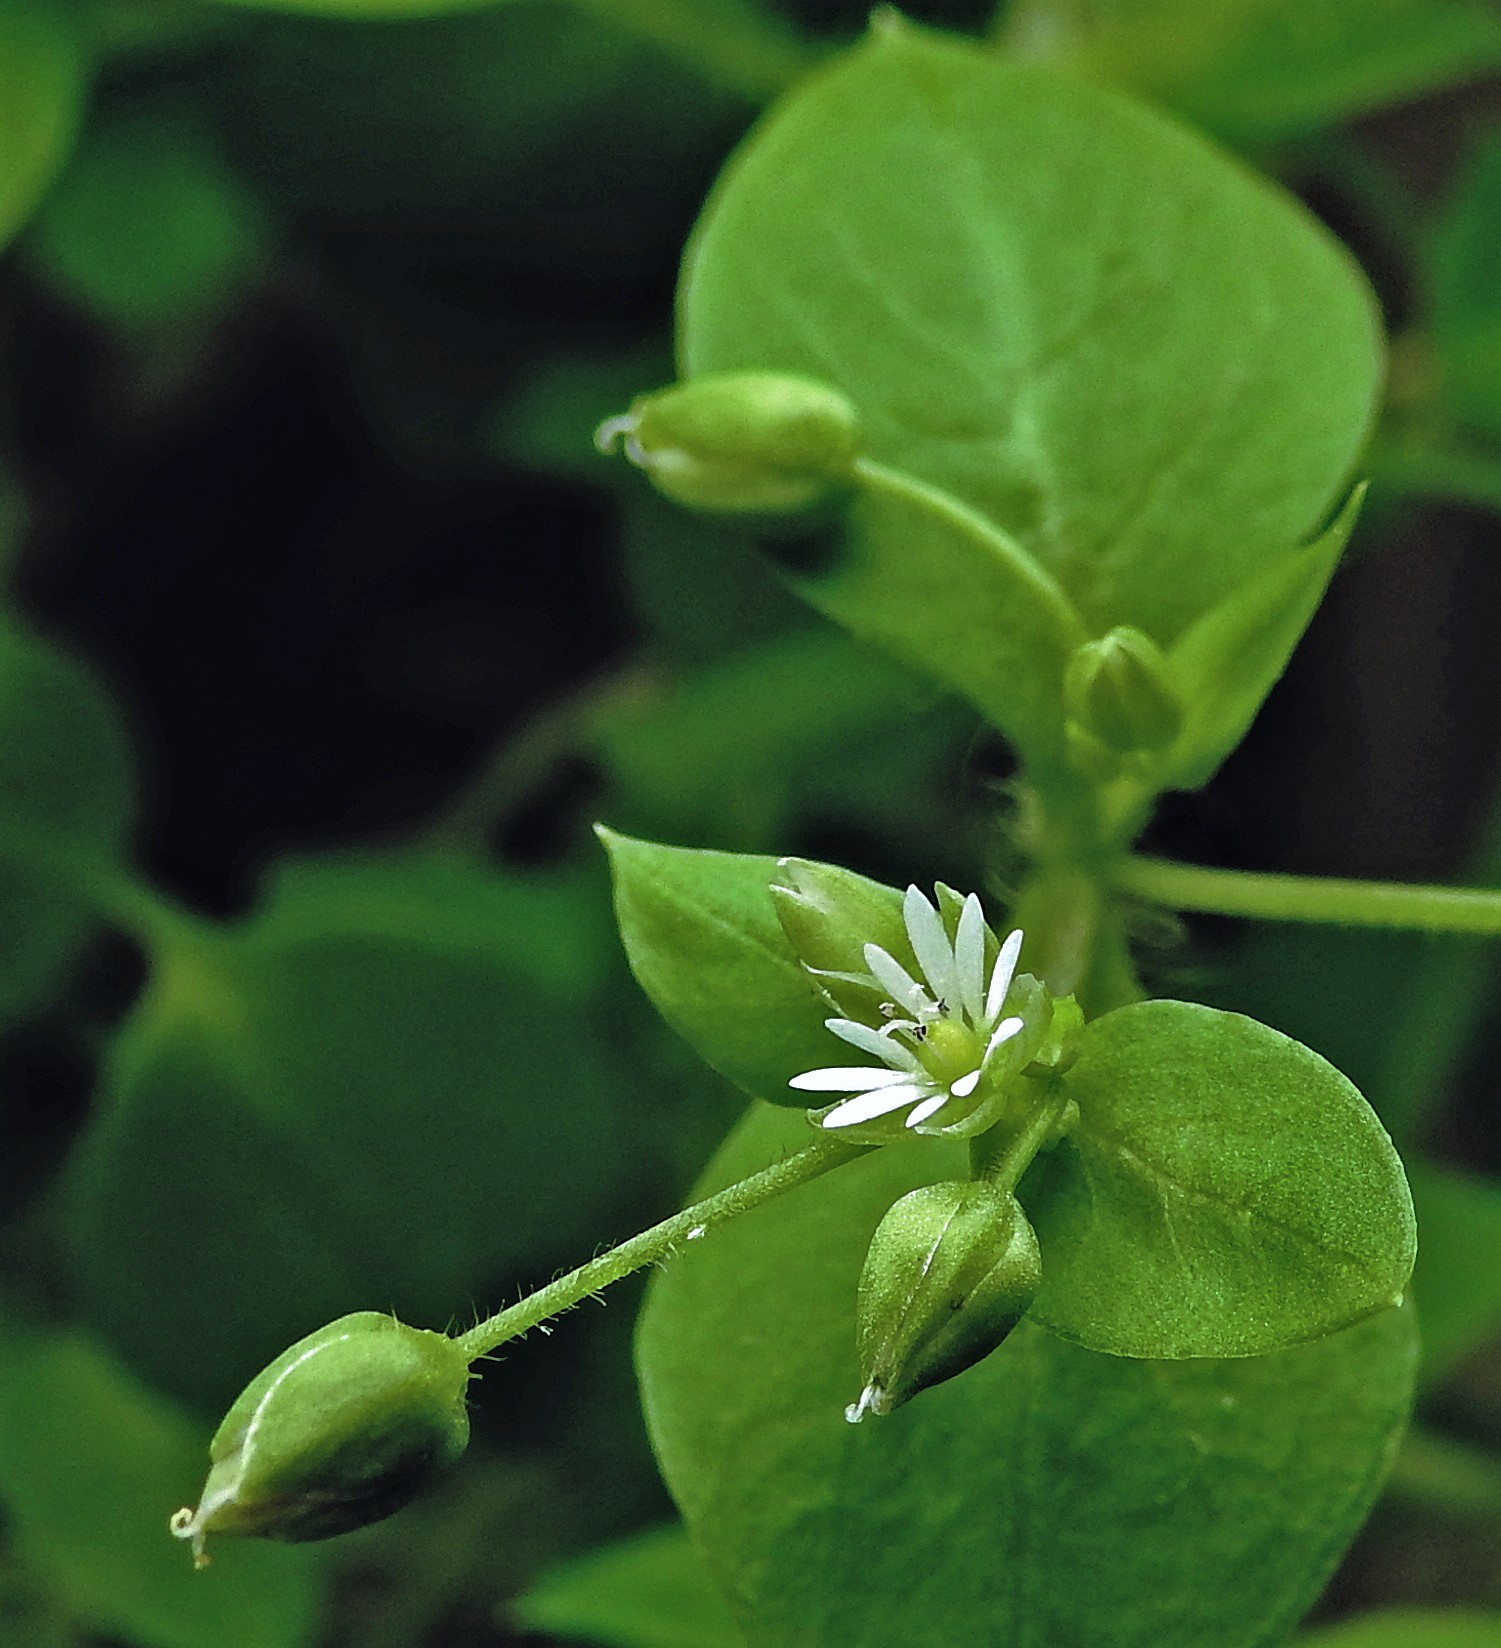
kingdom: Plantae
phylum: Tracheophyta
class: Magnoliopsida
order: Caryophyllales
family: Caryophyllaceae
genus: Stellaria
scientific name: Stellaria media
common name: Common chickweed
